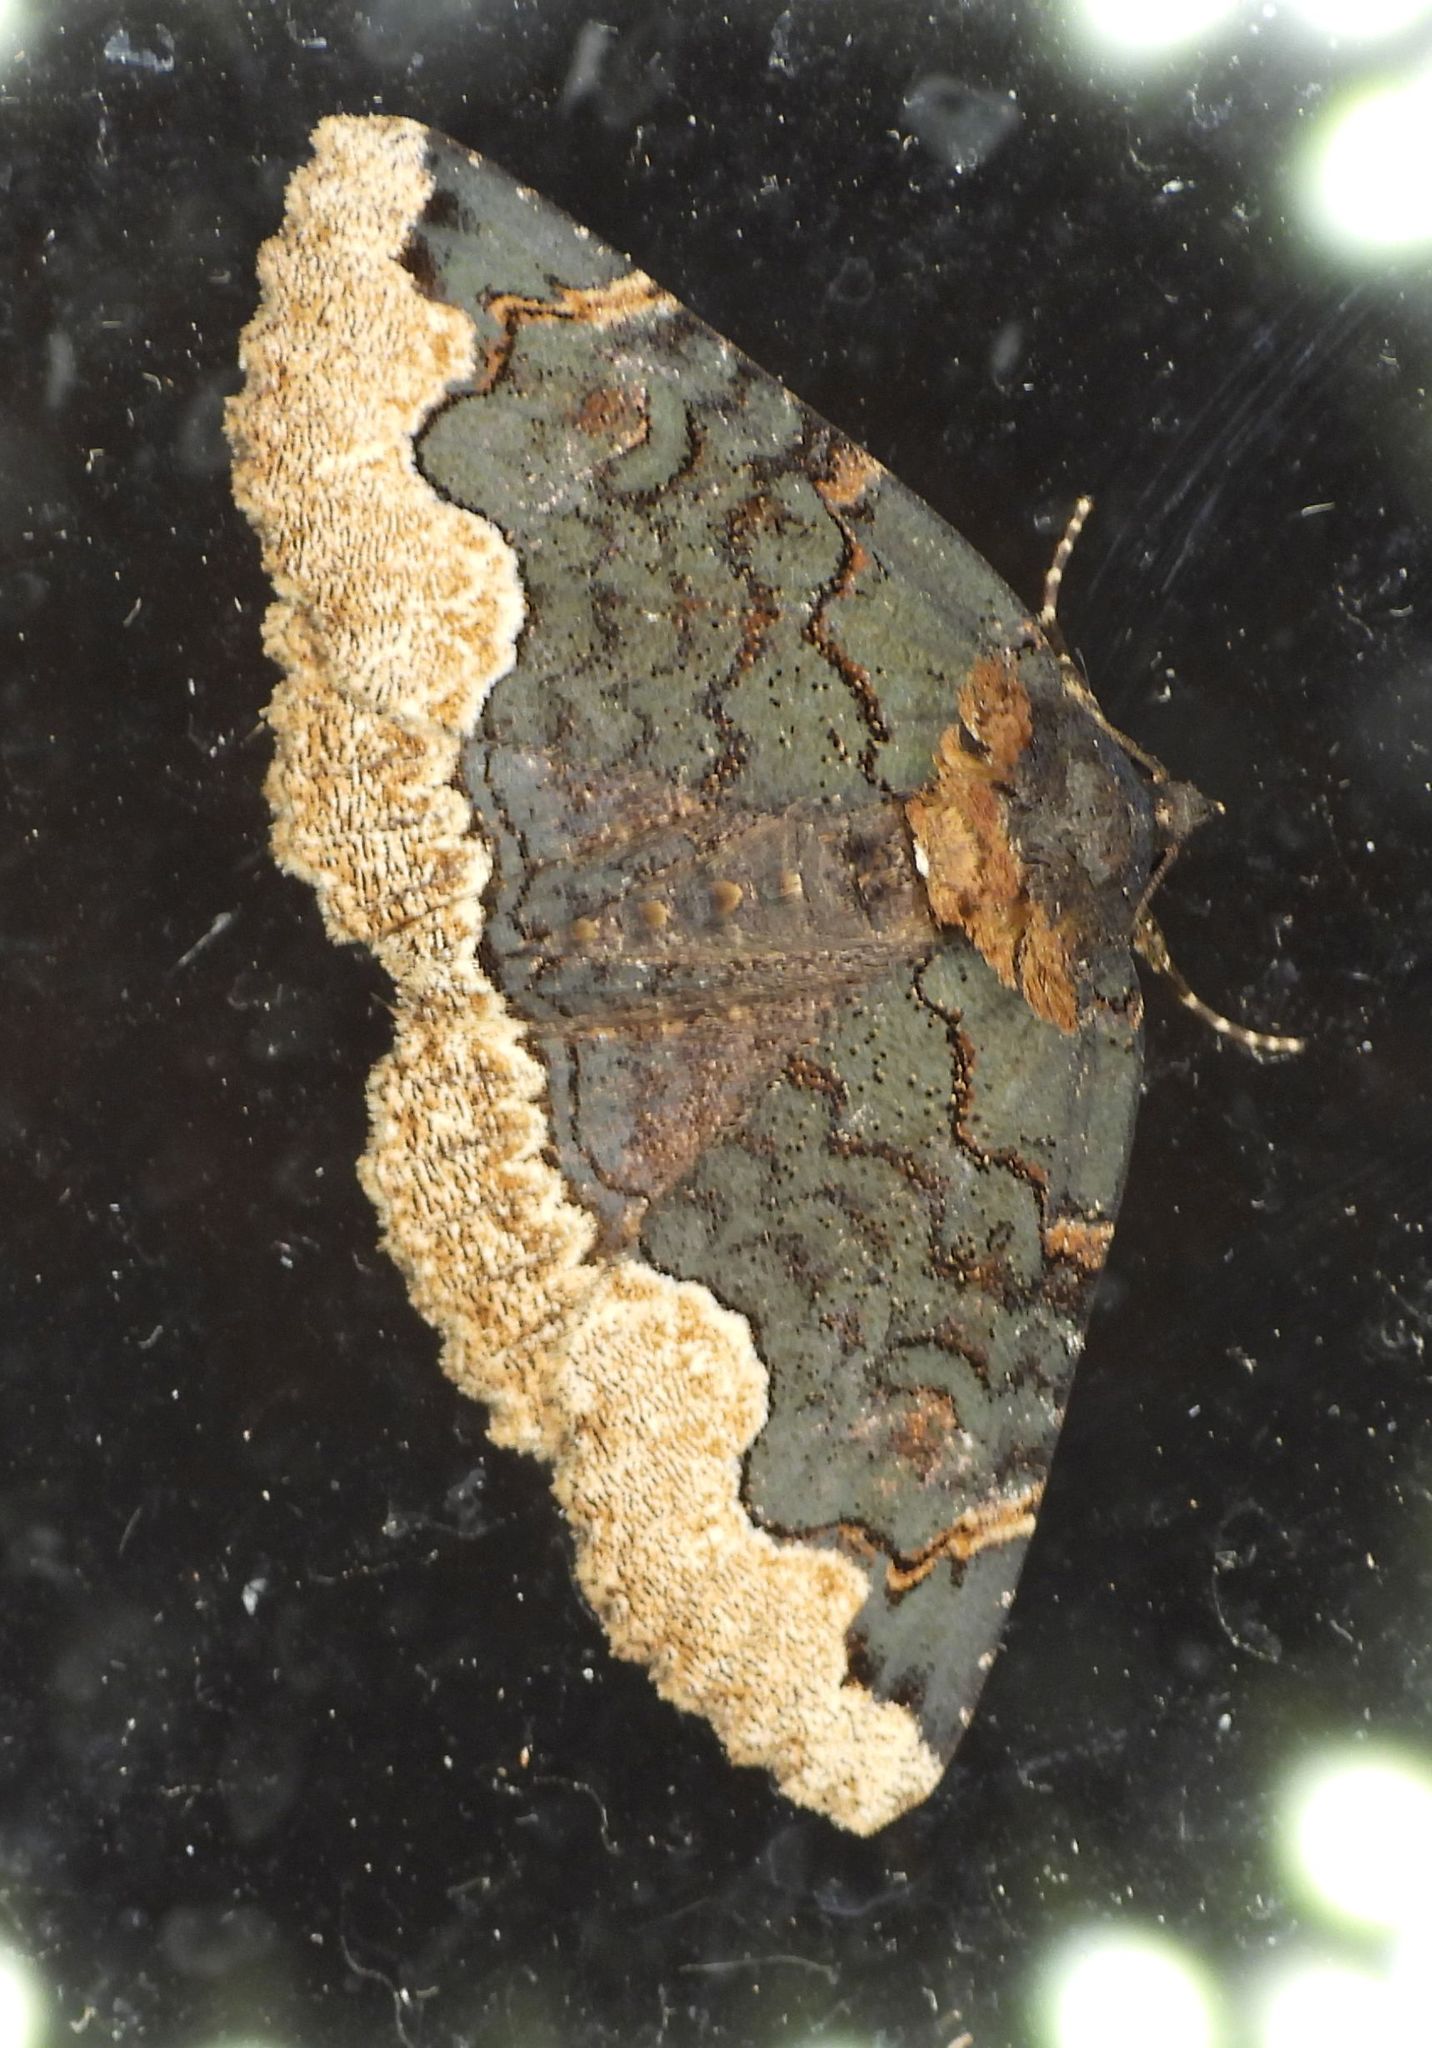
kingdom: Animalia
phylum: Arthropoda
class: Insecta
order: Lepidoptera
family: Erebidae
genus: Zale
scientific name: Zale horrida
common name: Horrid zale moth
